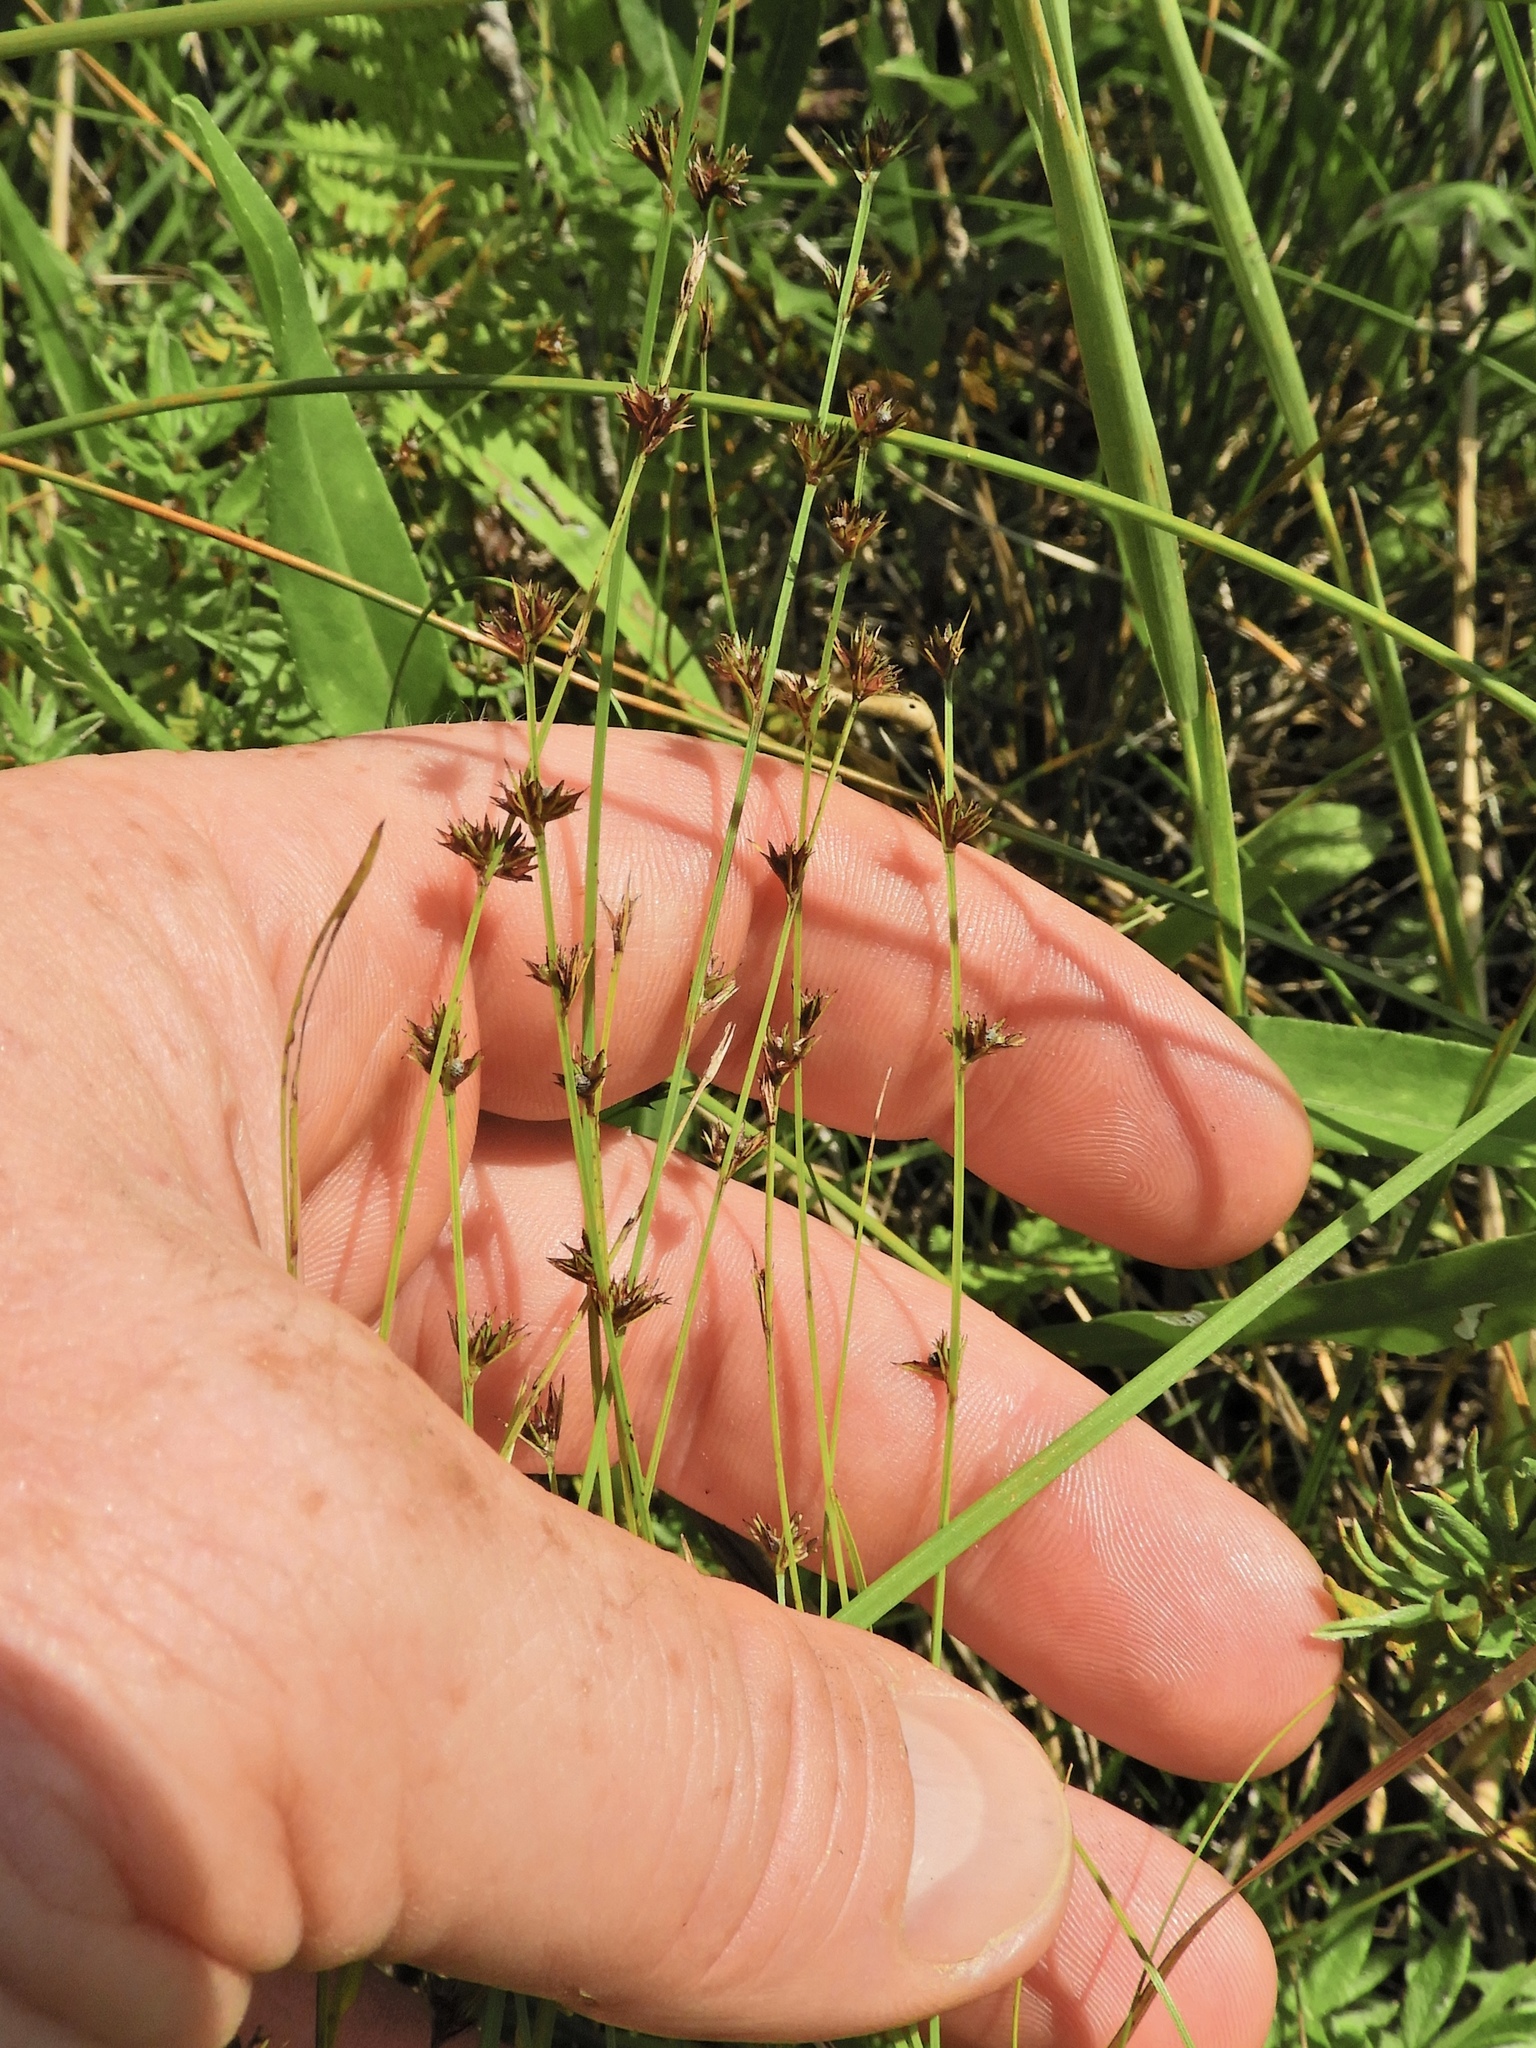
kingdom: Plantae
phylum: Tracheophyta
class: Liliopsida
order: Poales
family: Cyperaceae
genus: Scleria
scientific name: Scleria verticillata
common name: Low nutrush
